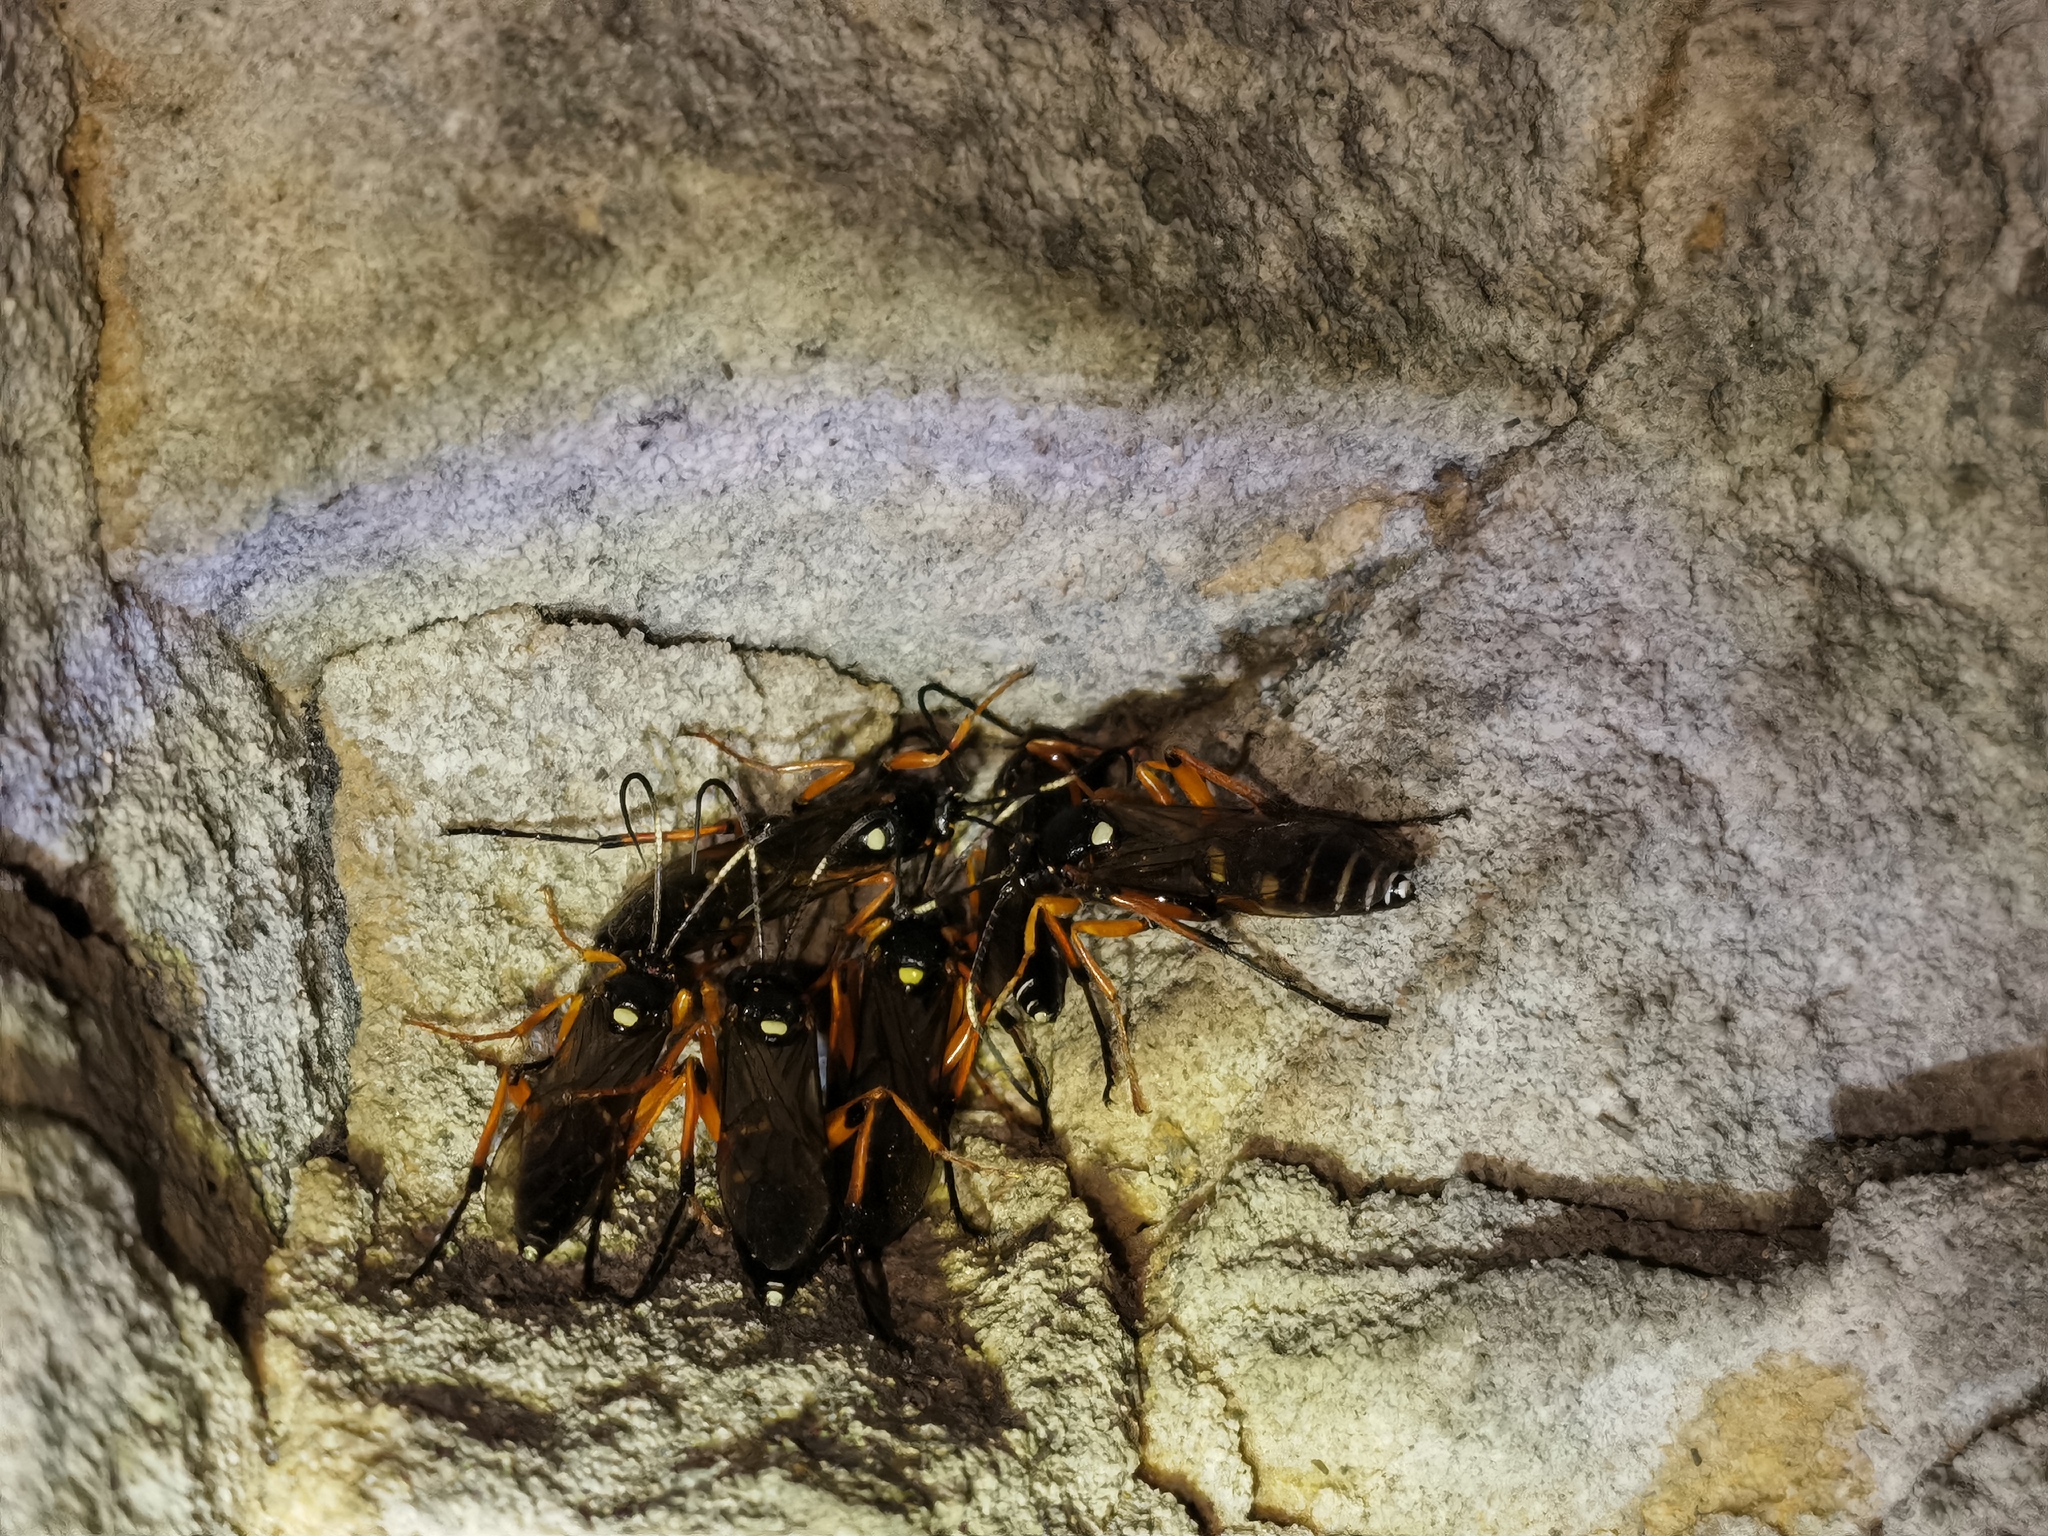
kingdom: Animalia
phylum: Arthropoda
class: Insecta
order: Hymenoptera
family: Ichneumonidae
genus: Diphyus
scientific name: Diphyus quadripunctorius
